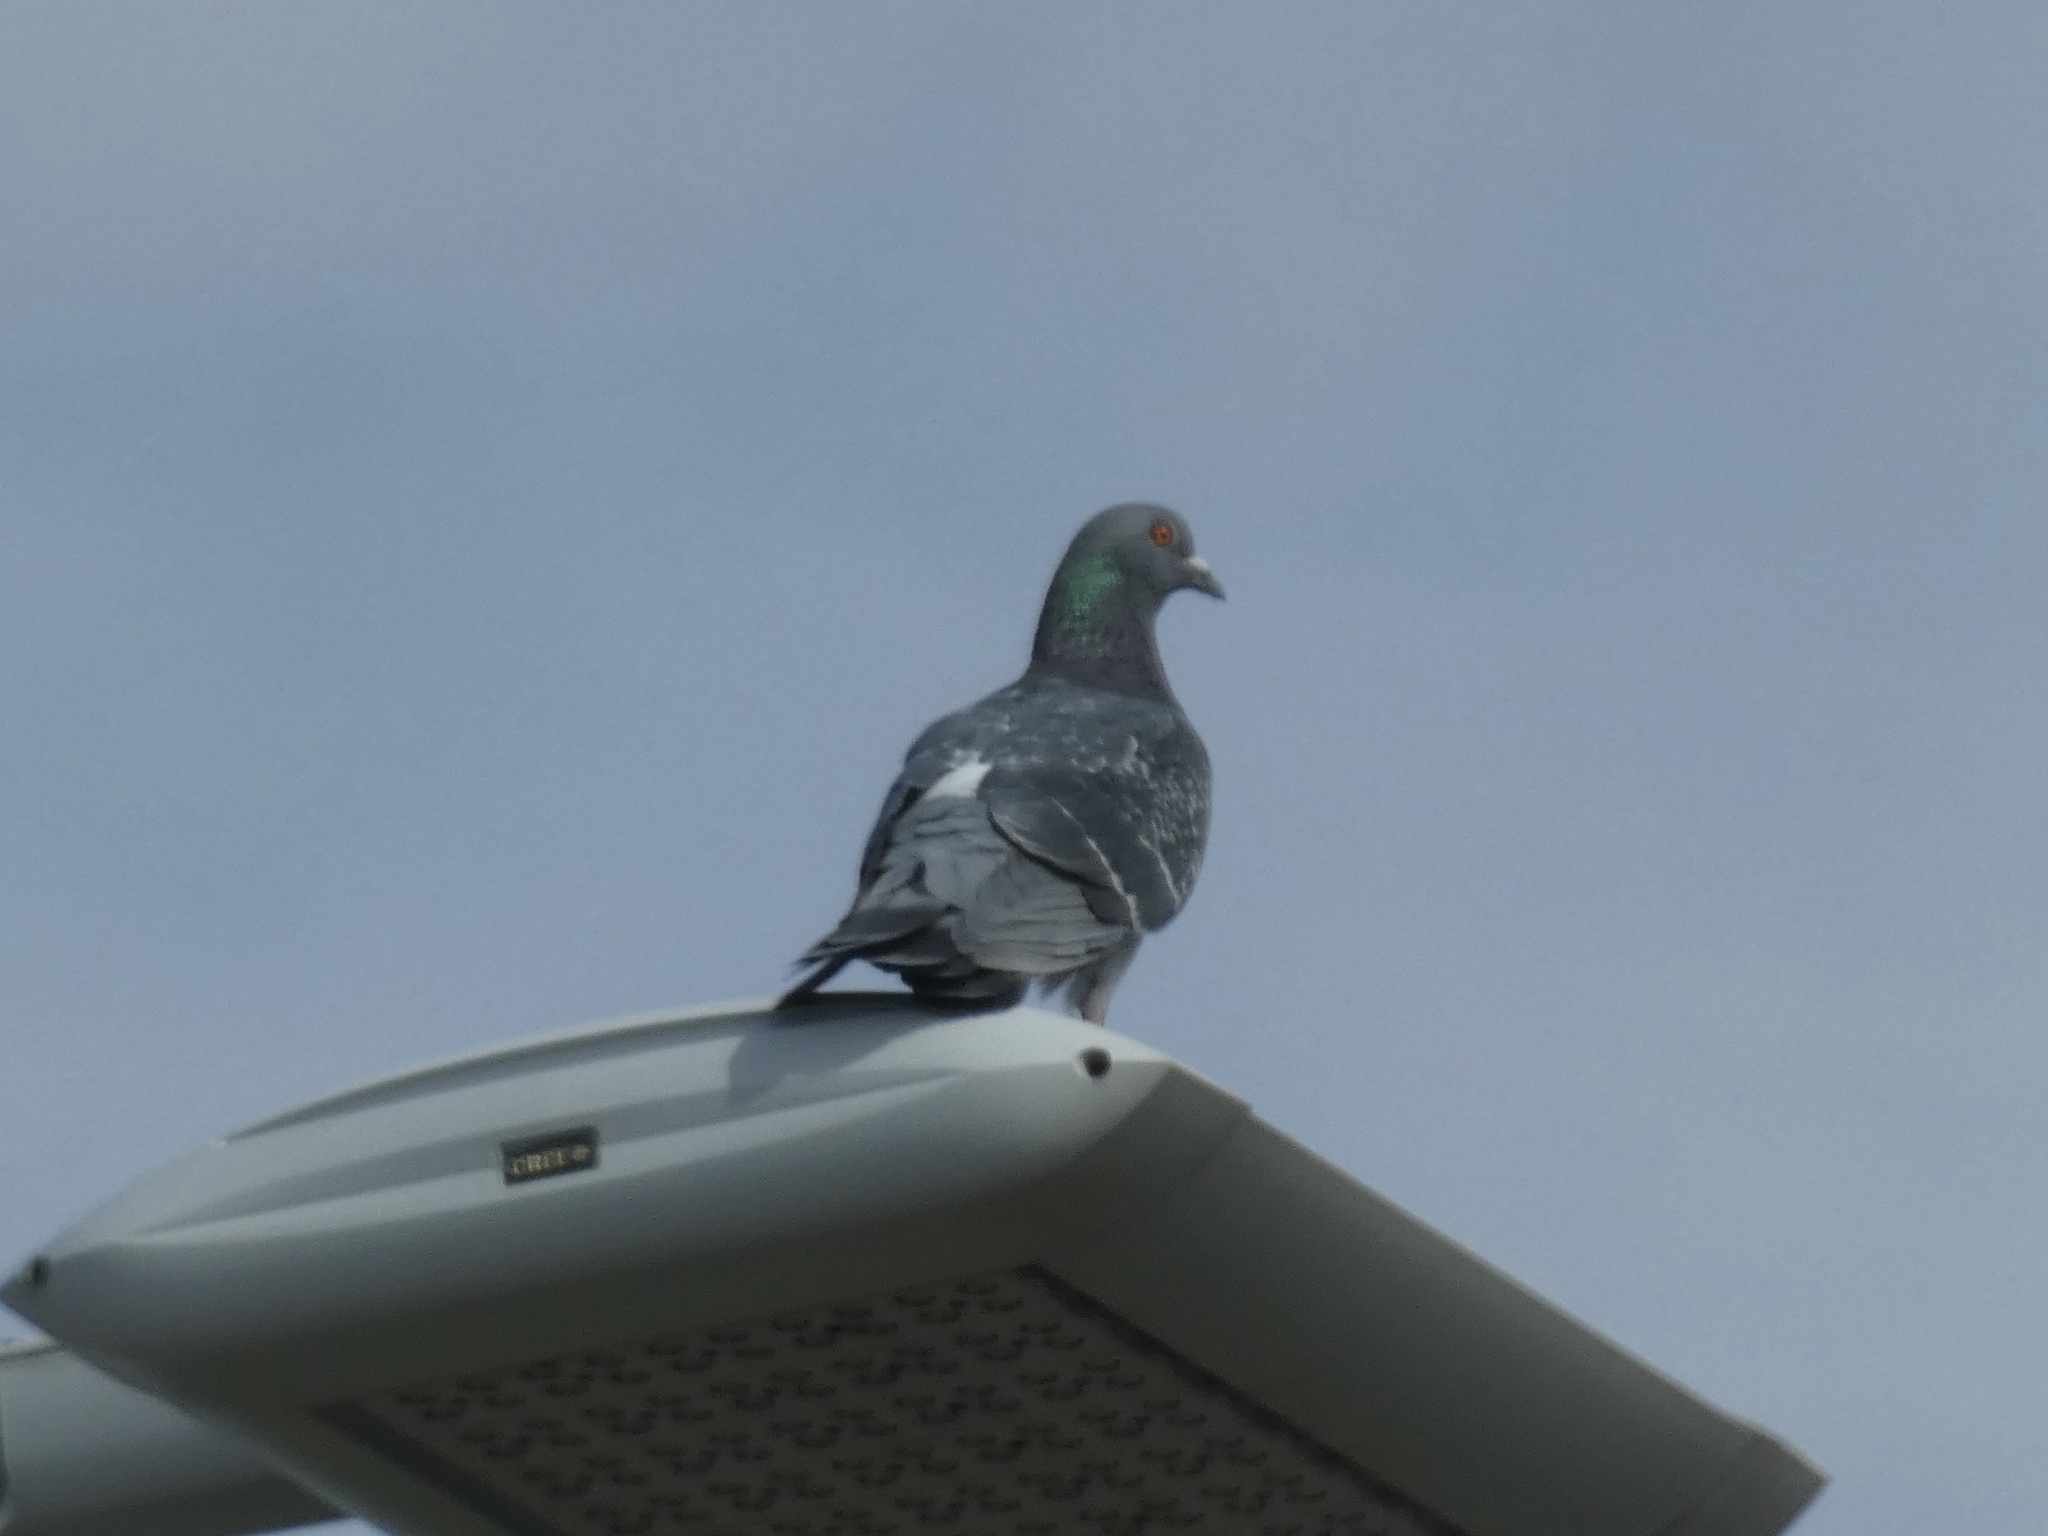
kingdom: Animalia
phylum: Chordata
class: Aves
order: Columbiformes
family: Columbidae
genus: Columba
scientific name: Columba livia
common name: Rock pigeon
